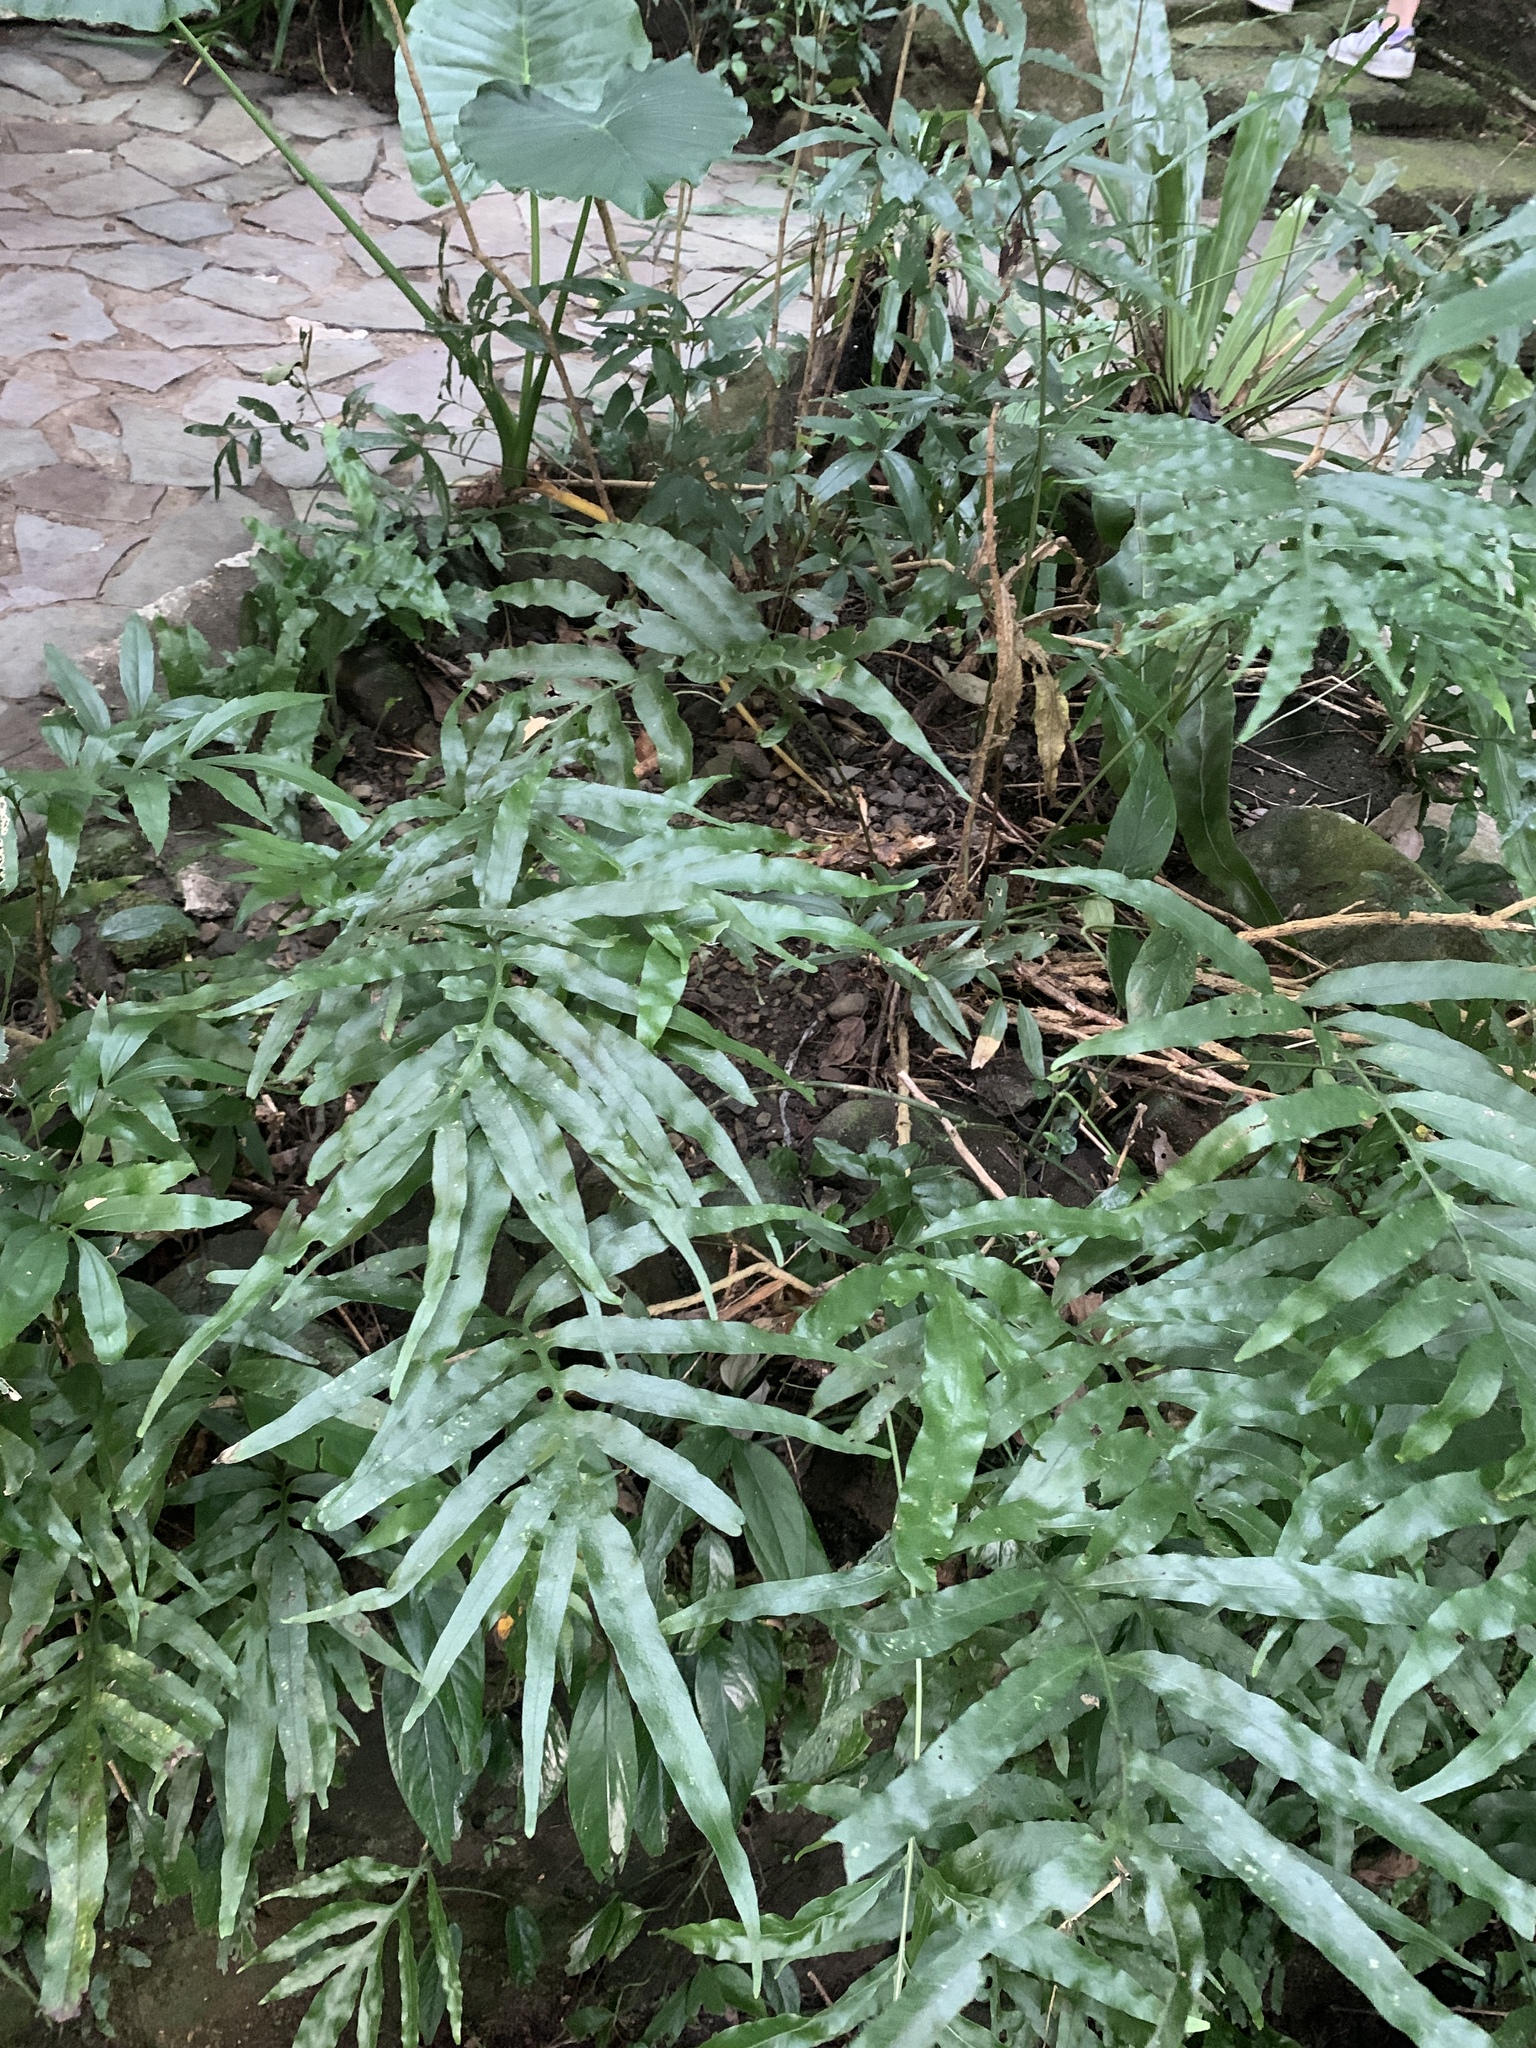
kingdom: Plantae
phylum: Tracheophyta
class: Polypodiopsida
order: Polypodiales
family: Polypodiaceae
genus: Leptochilus
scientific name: Leptochilus ellipticus
